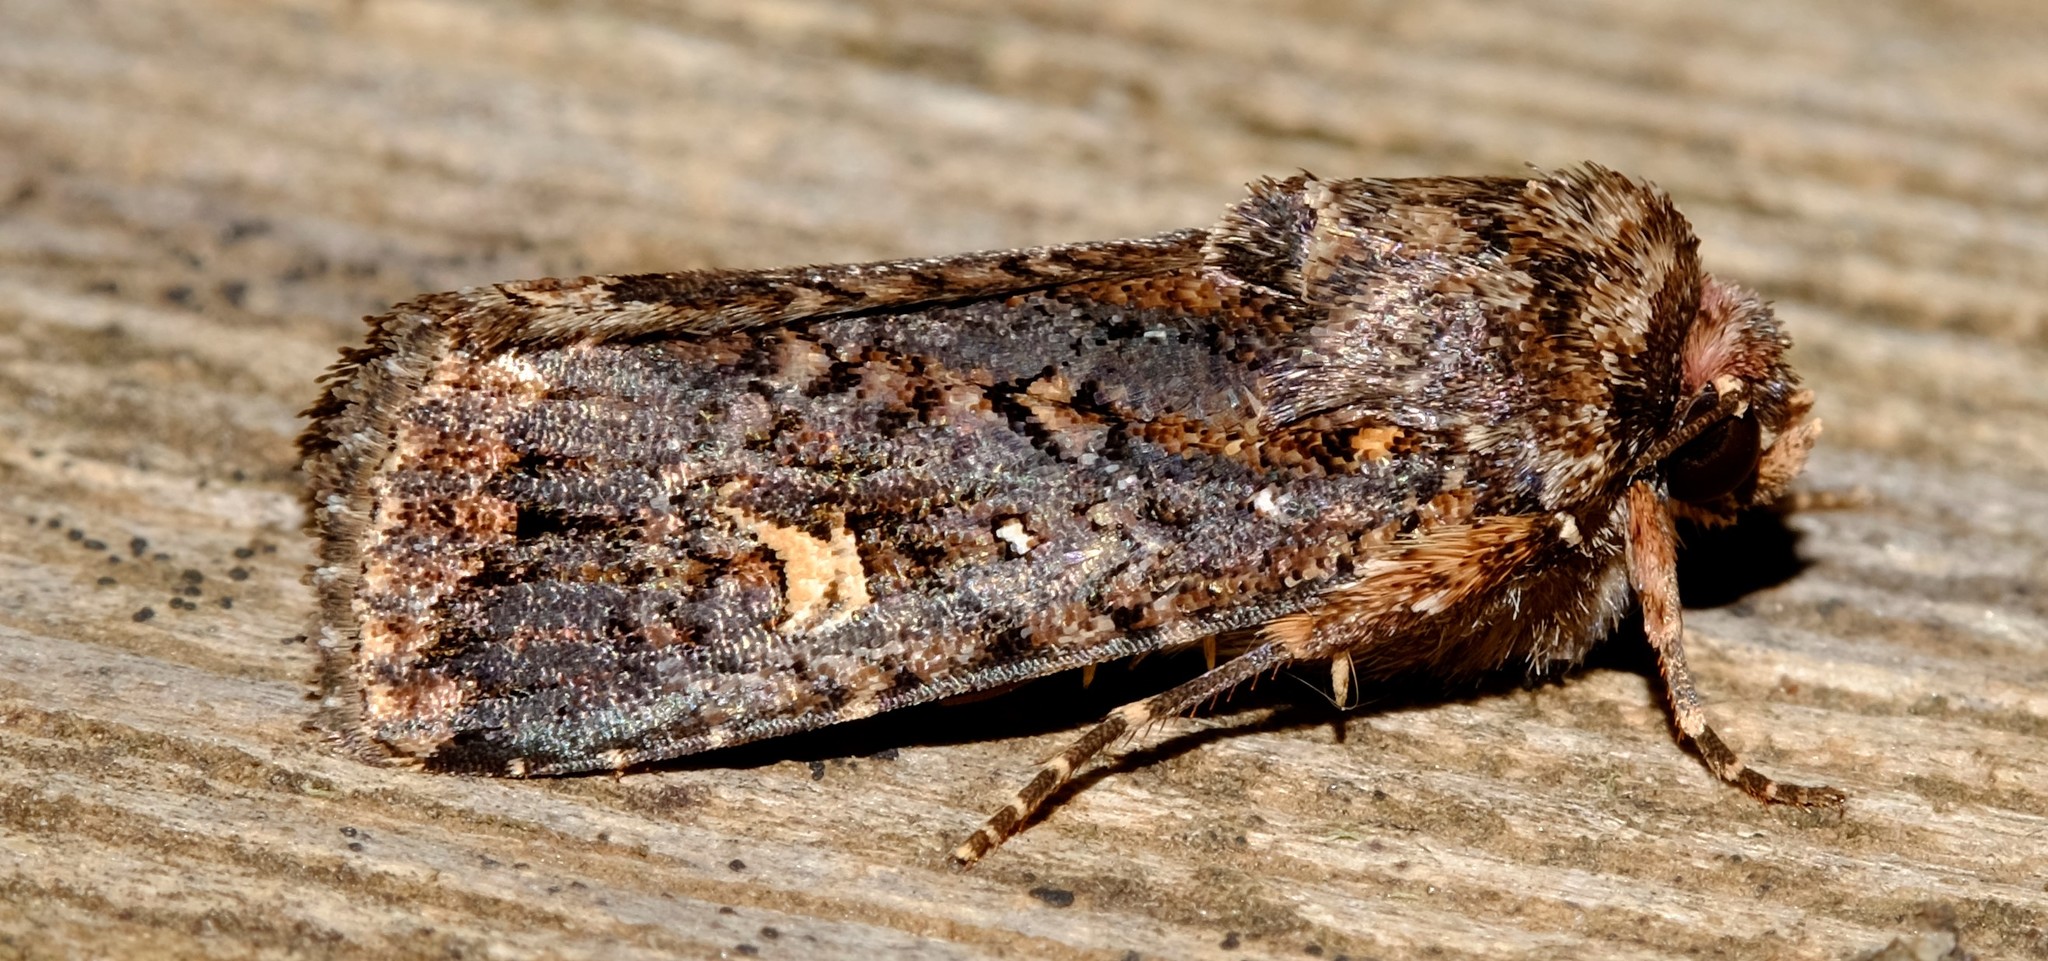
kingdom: Animalia
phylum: Arthropoda
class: Insecta
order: Lepidoptera
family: Noctuidae
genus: Proteuxoa
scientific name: Proteuxoa hydraecioides
